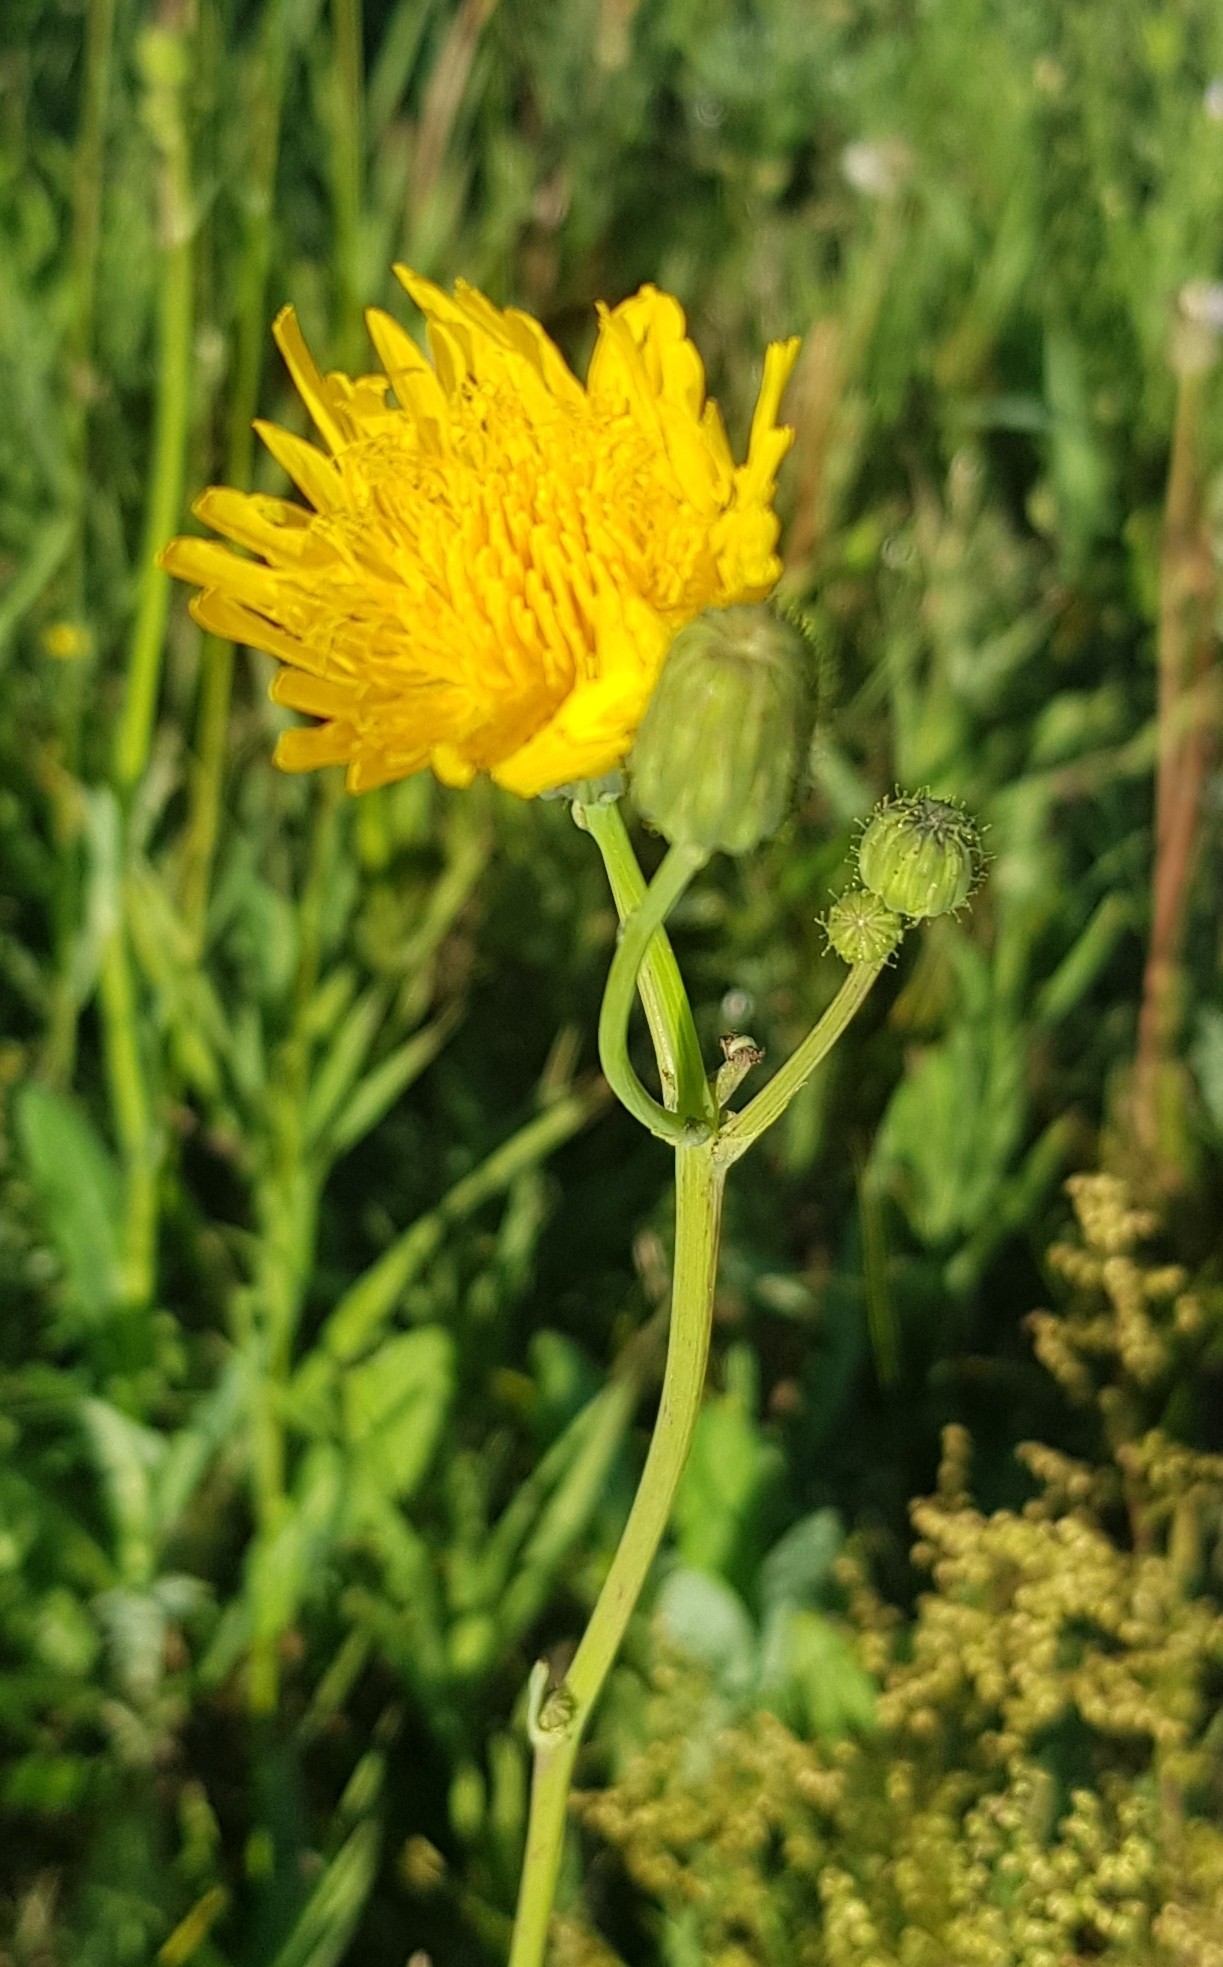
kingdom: Plantae
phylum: Tracheophyta
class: Magnoliopsida
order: Asterales
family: Asteraceae
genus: Sonchus
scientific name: Sonchus oleraceus
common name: Common sowthistle
